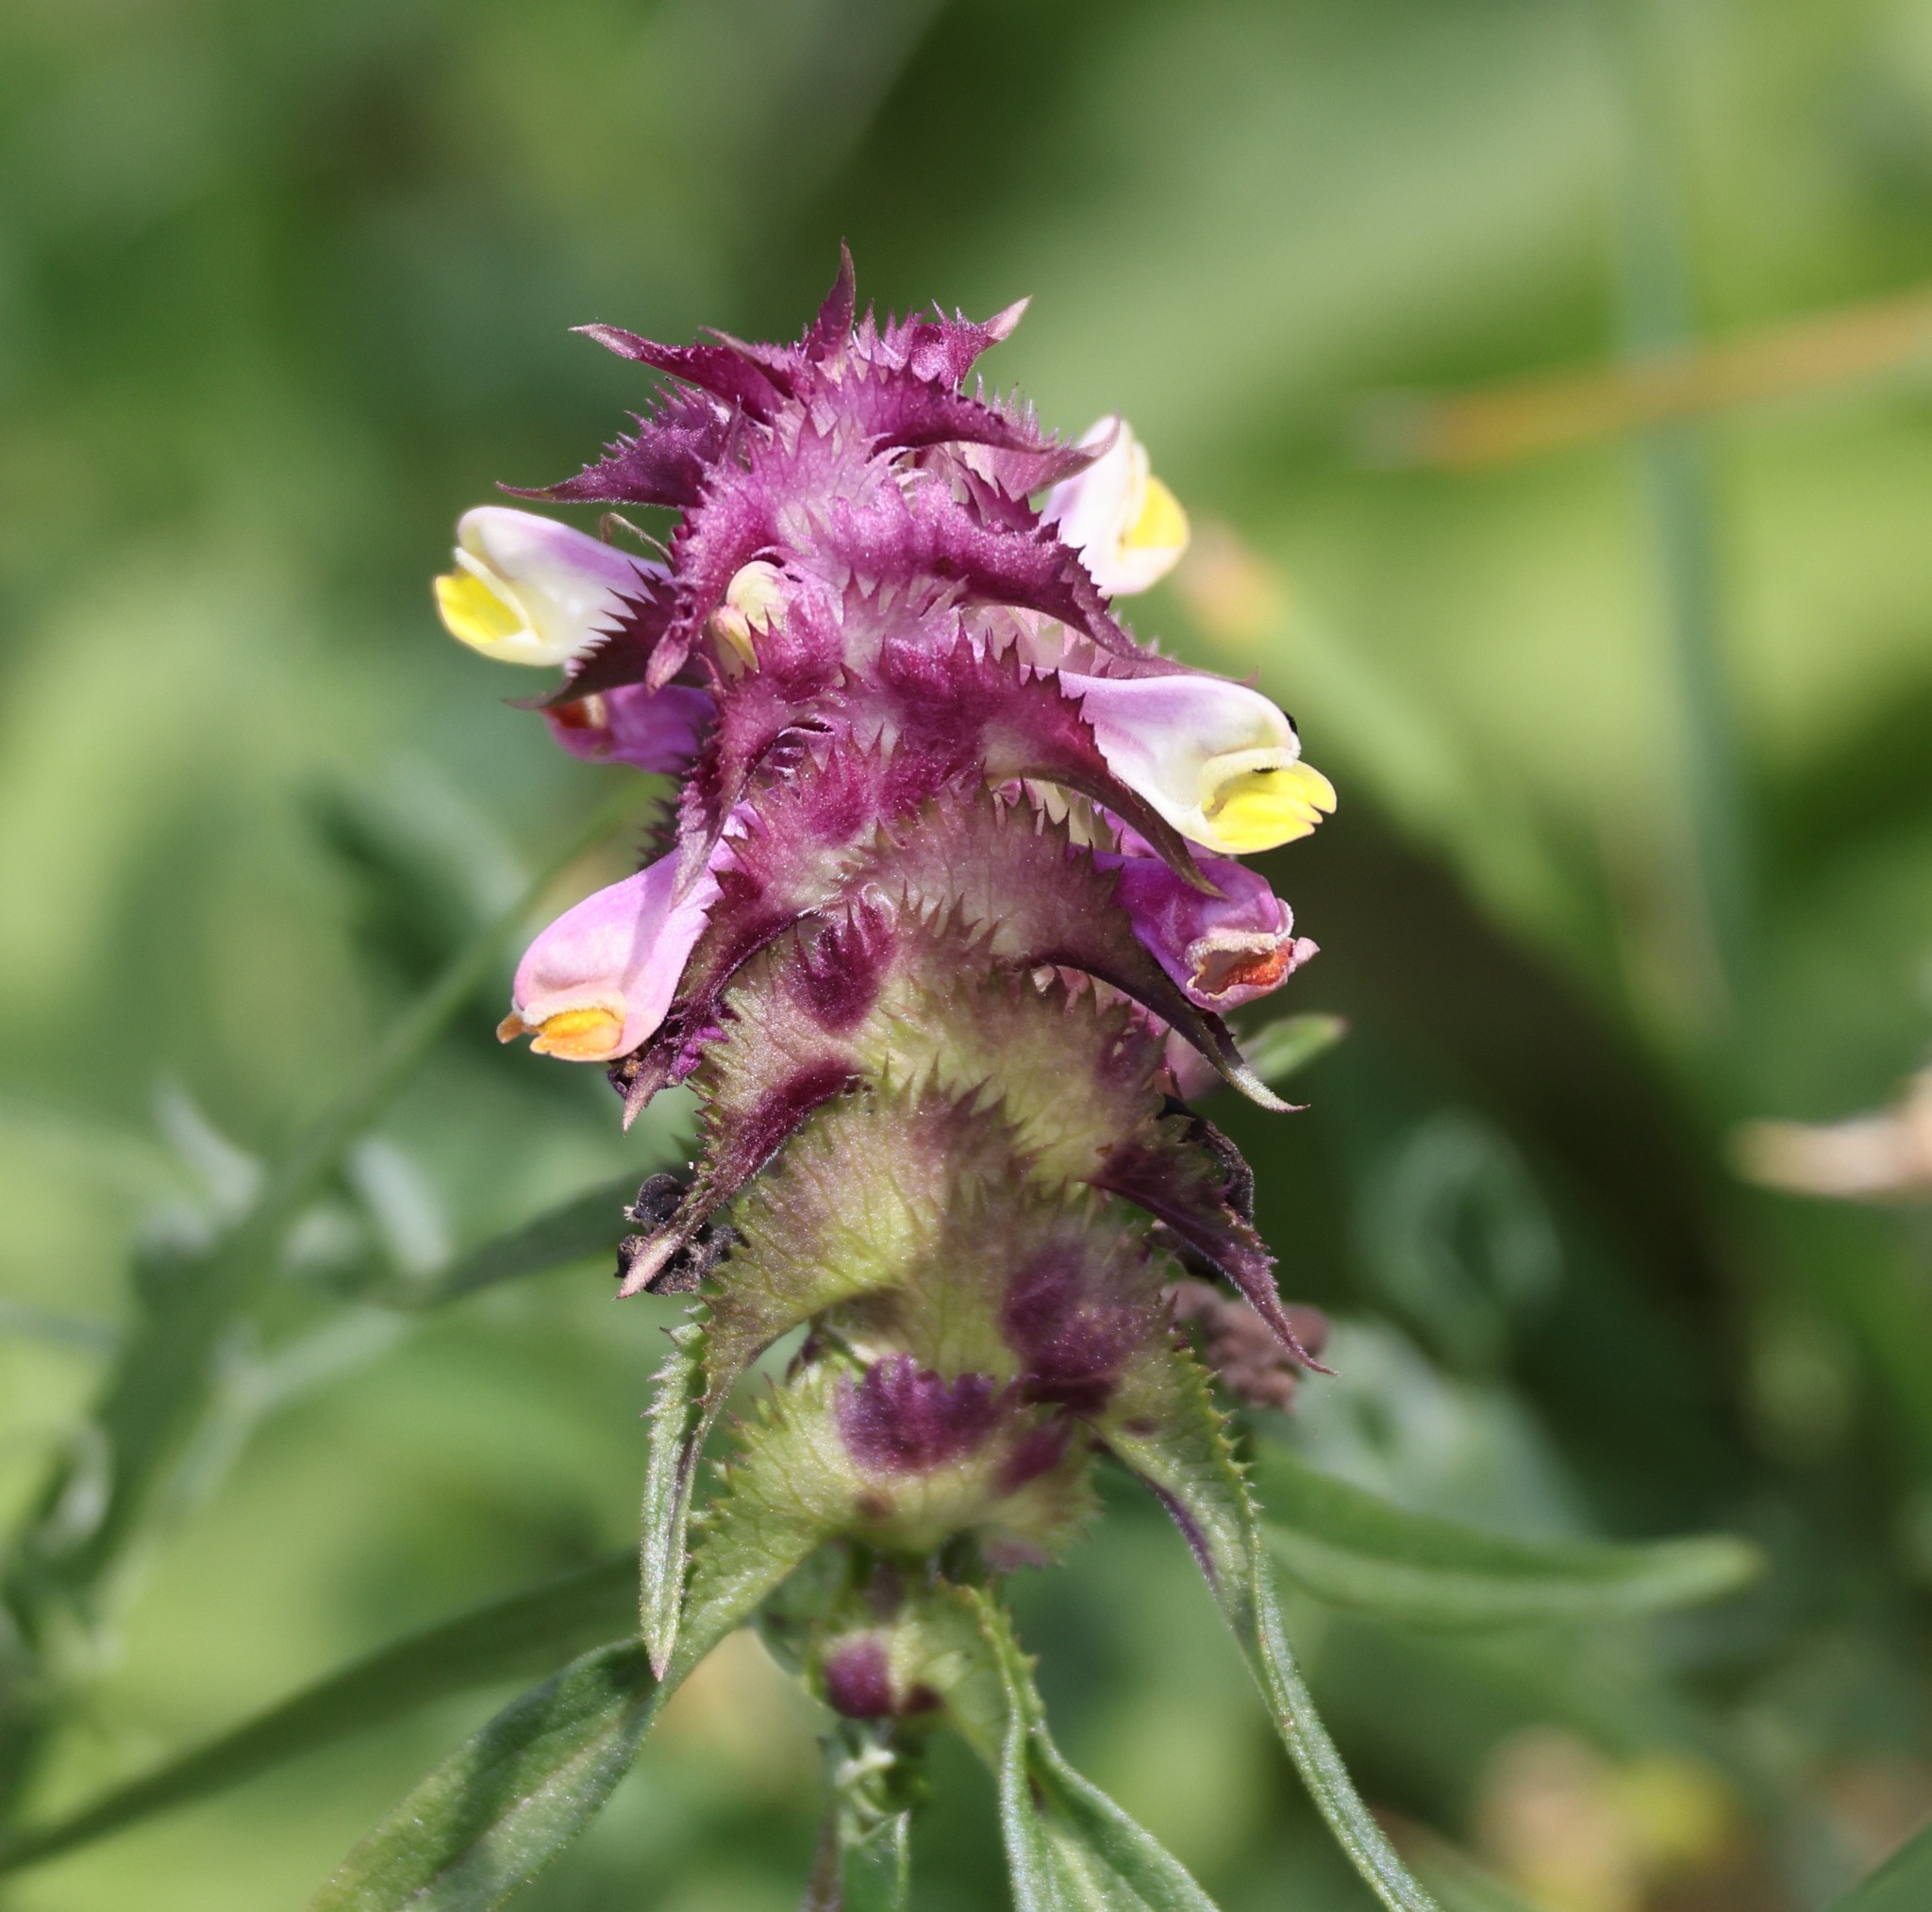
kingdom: Plantae
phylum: Tracheophyta
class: Magnoliopsida
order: Lamiales
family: Orobanchaceae
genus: Melampyrum
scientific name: Melampyrum cristatum
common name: Crested cow-wheat
